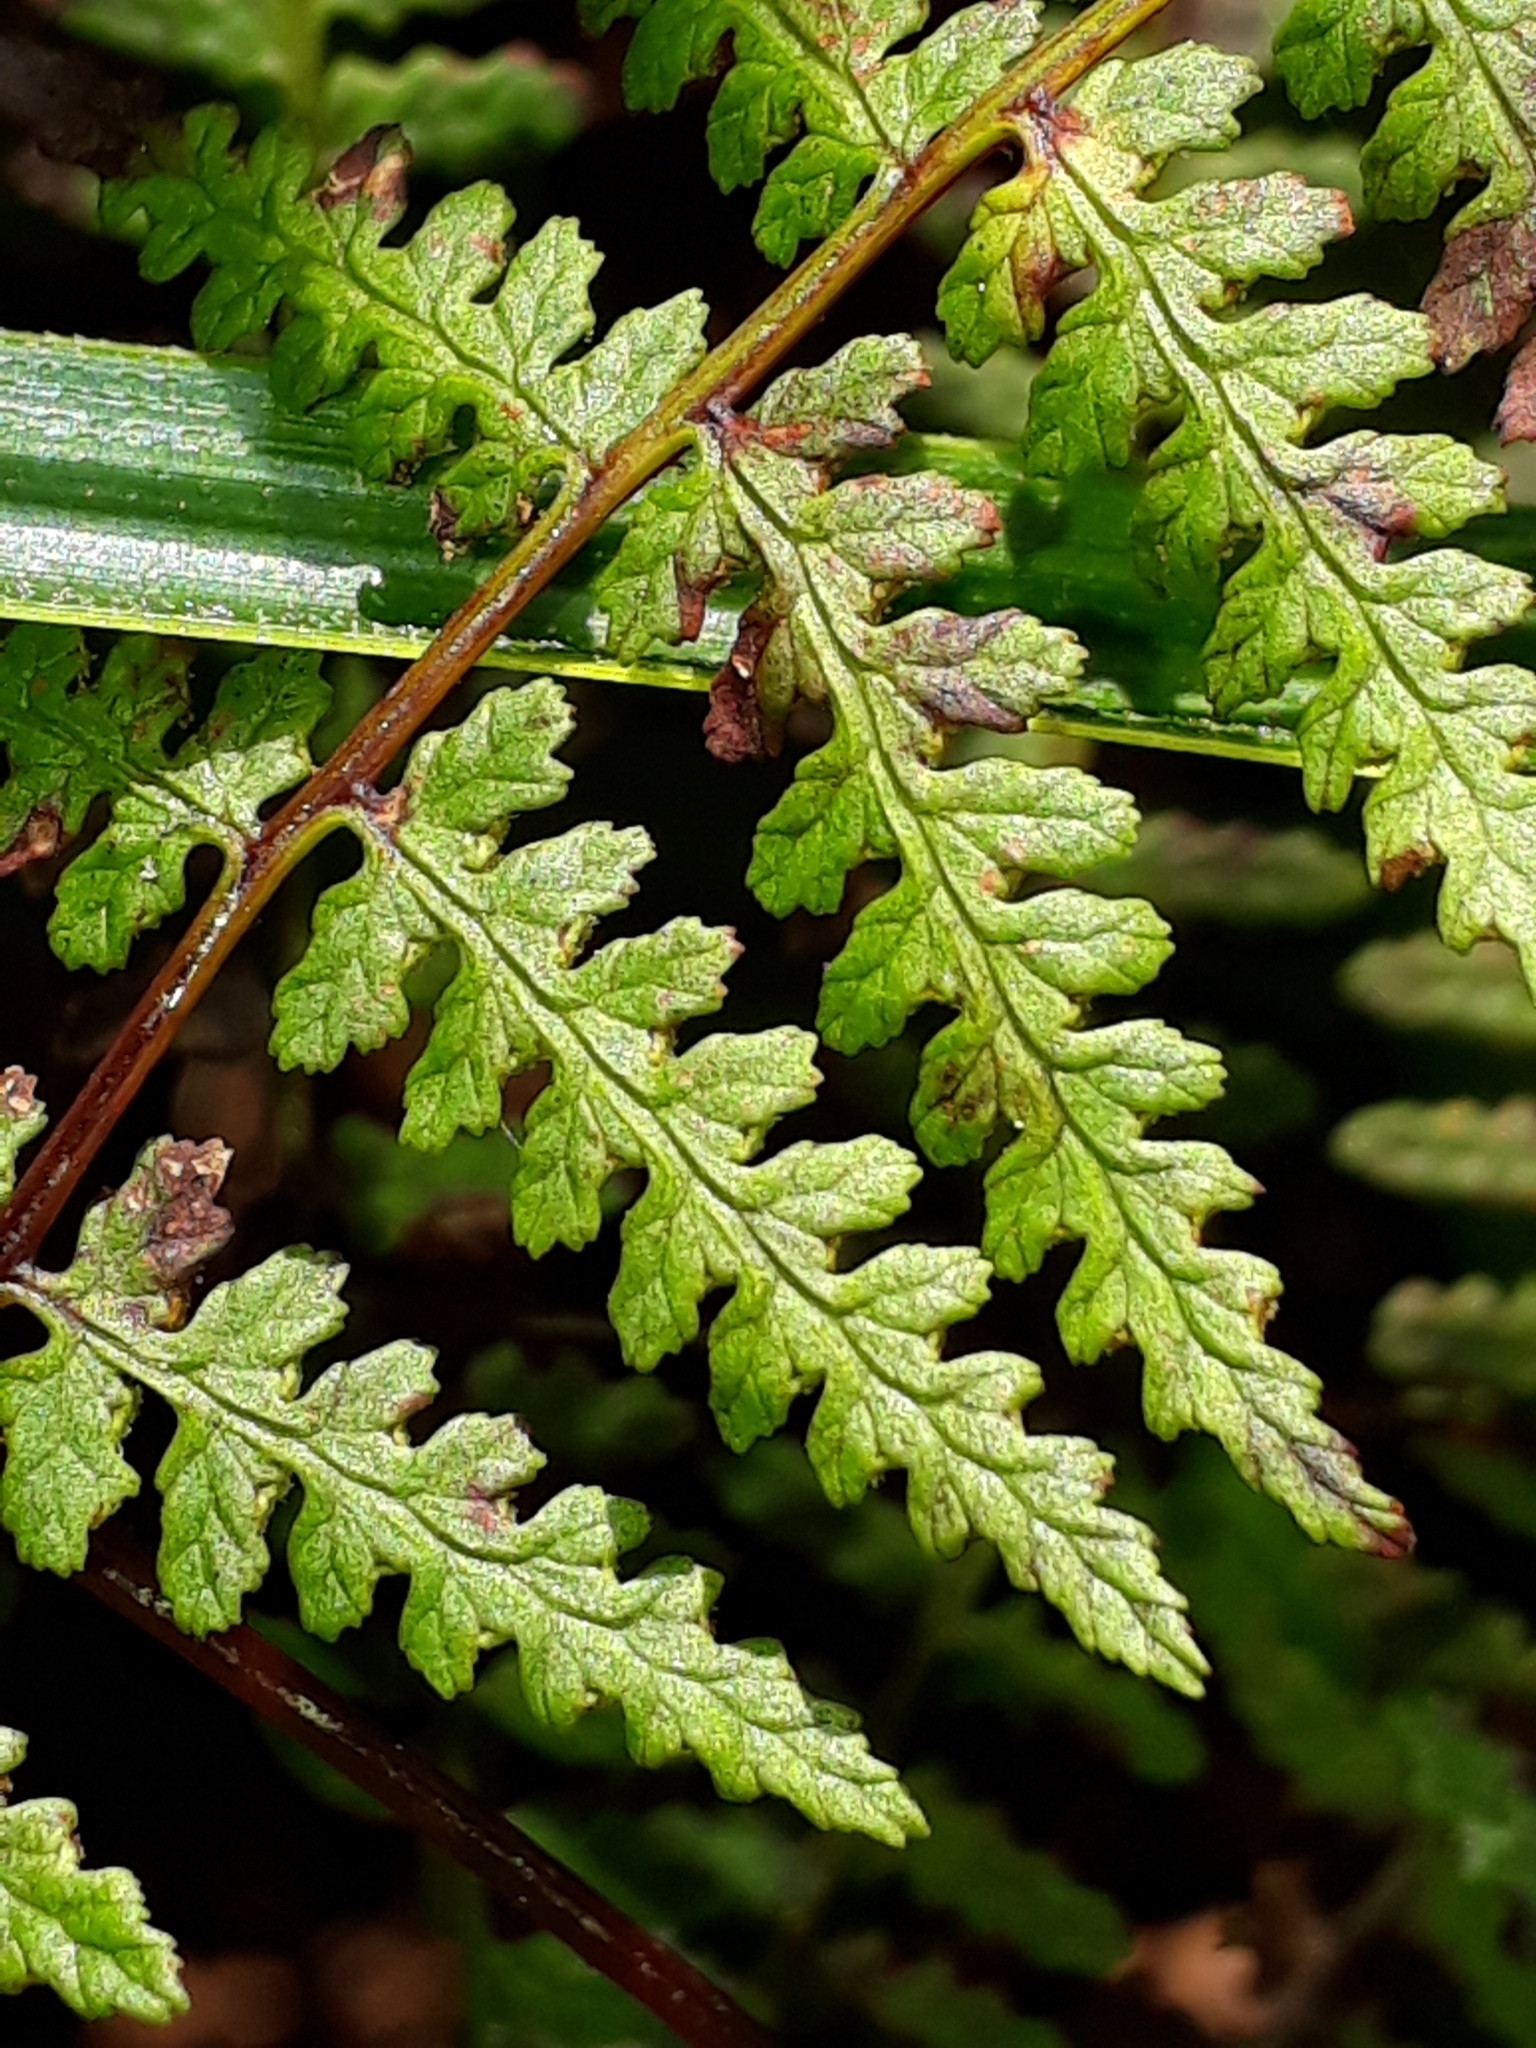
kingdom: Plantae
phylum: Tracheophyta
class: Polypodiopsida
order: Polypodiales
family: Dennstaedtiaceae
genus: Hiya
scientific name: Hiya distans
